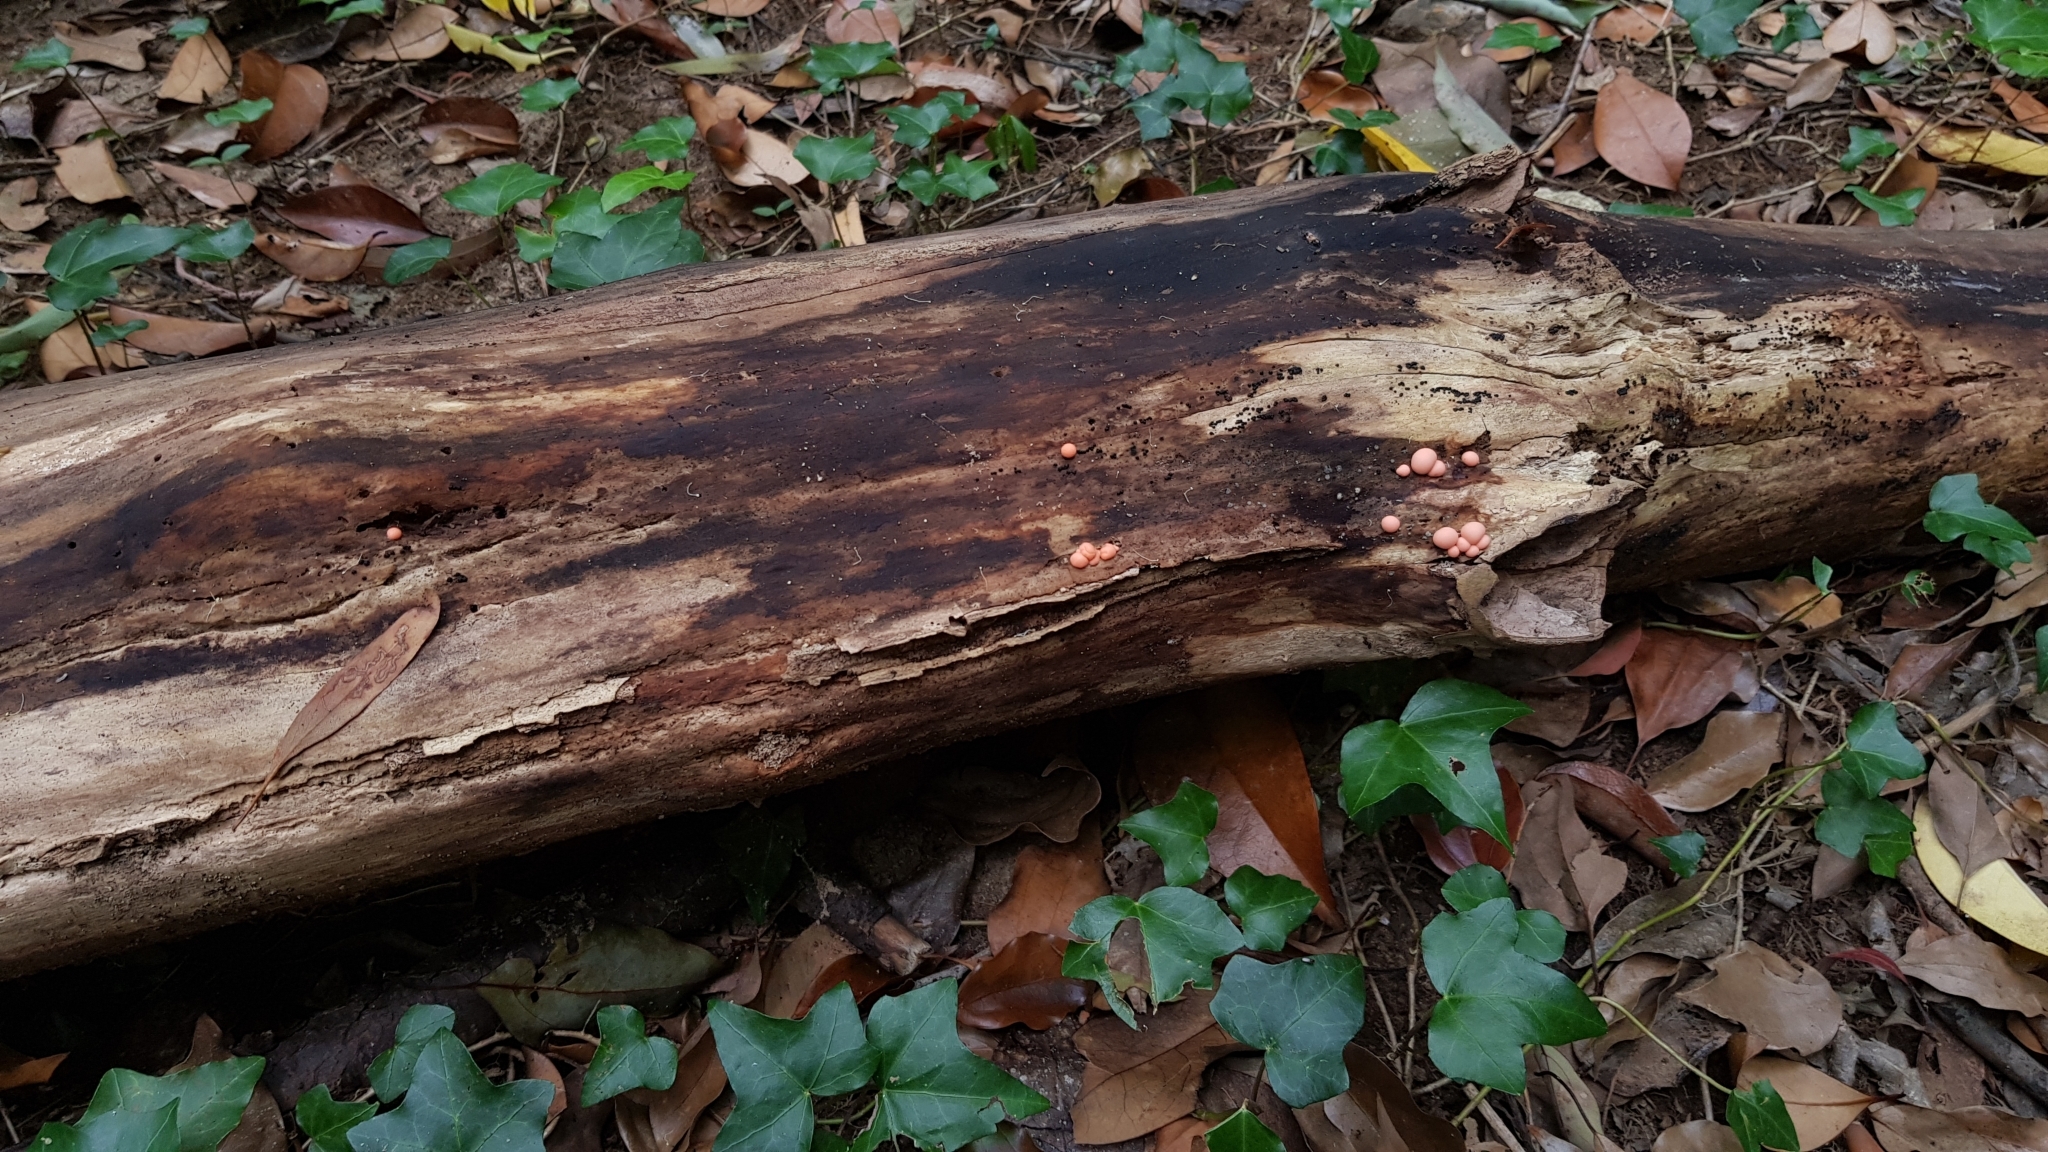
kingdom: Protozoa
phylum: Mycetozoa
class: Myxomycetes
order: Cribrariales
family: Tubiferaceae
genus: Lycogala
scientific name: Lycogala epidendrum
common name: Wolf's milk
